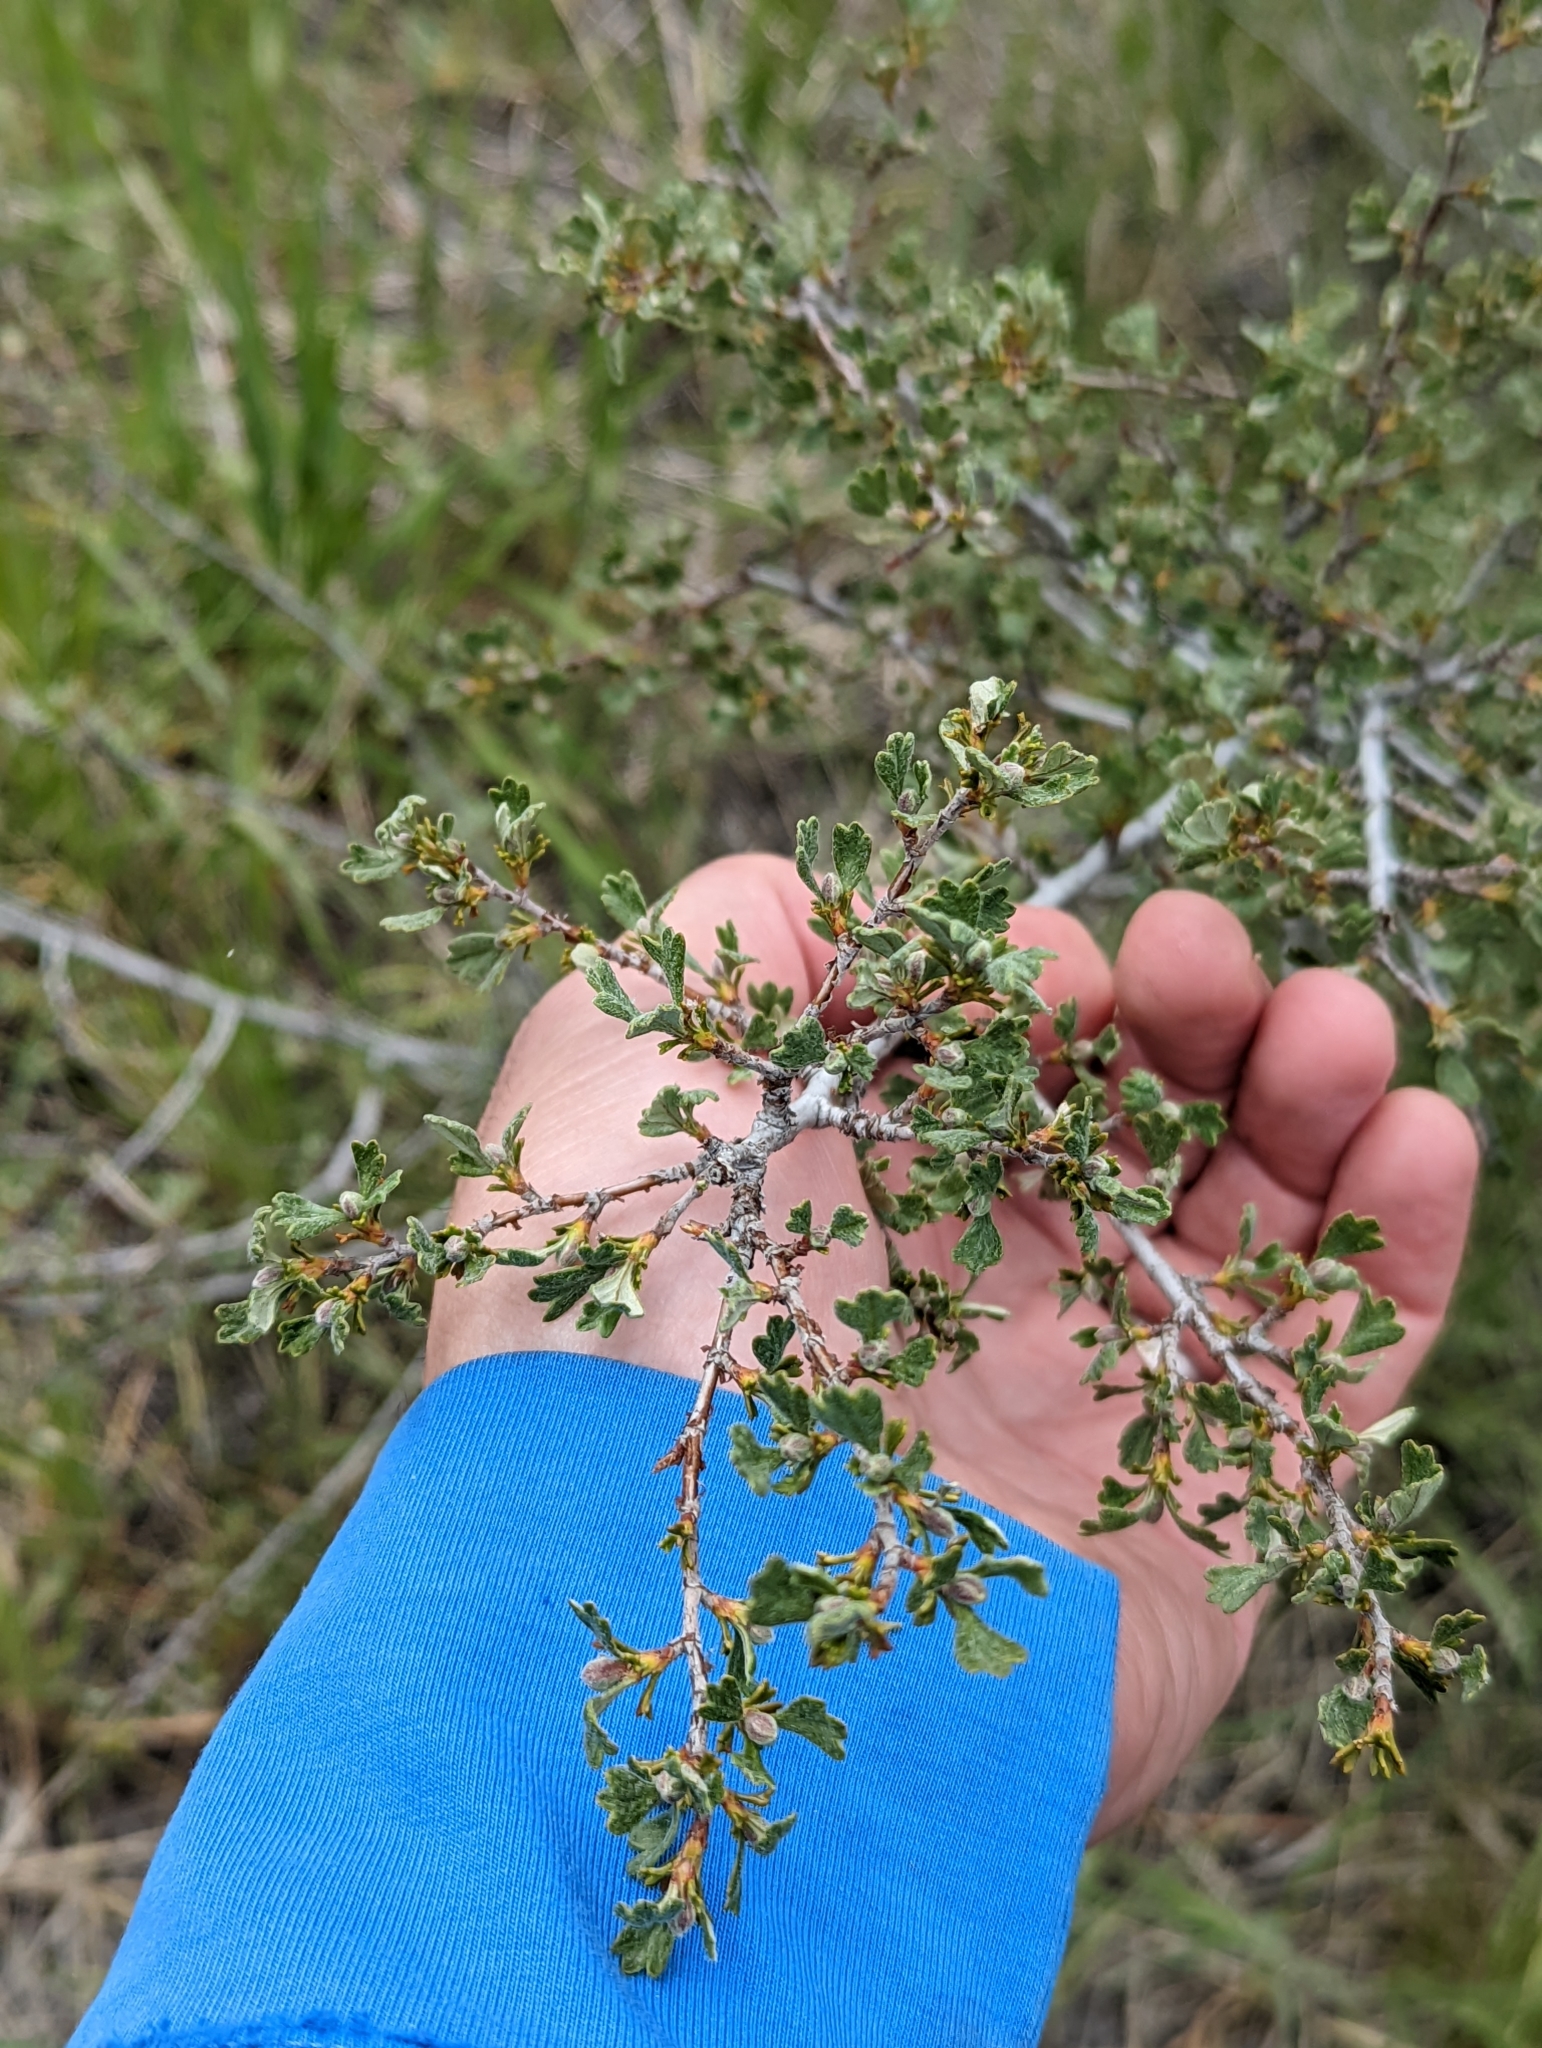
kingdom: Plantae
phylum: Tracheophyta
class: Magnoliopsida
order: Rosales
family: Rosaceae
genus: Purshia
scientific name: Purshia tridentata
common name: Antelope bitterbrush
